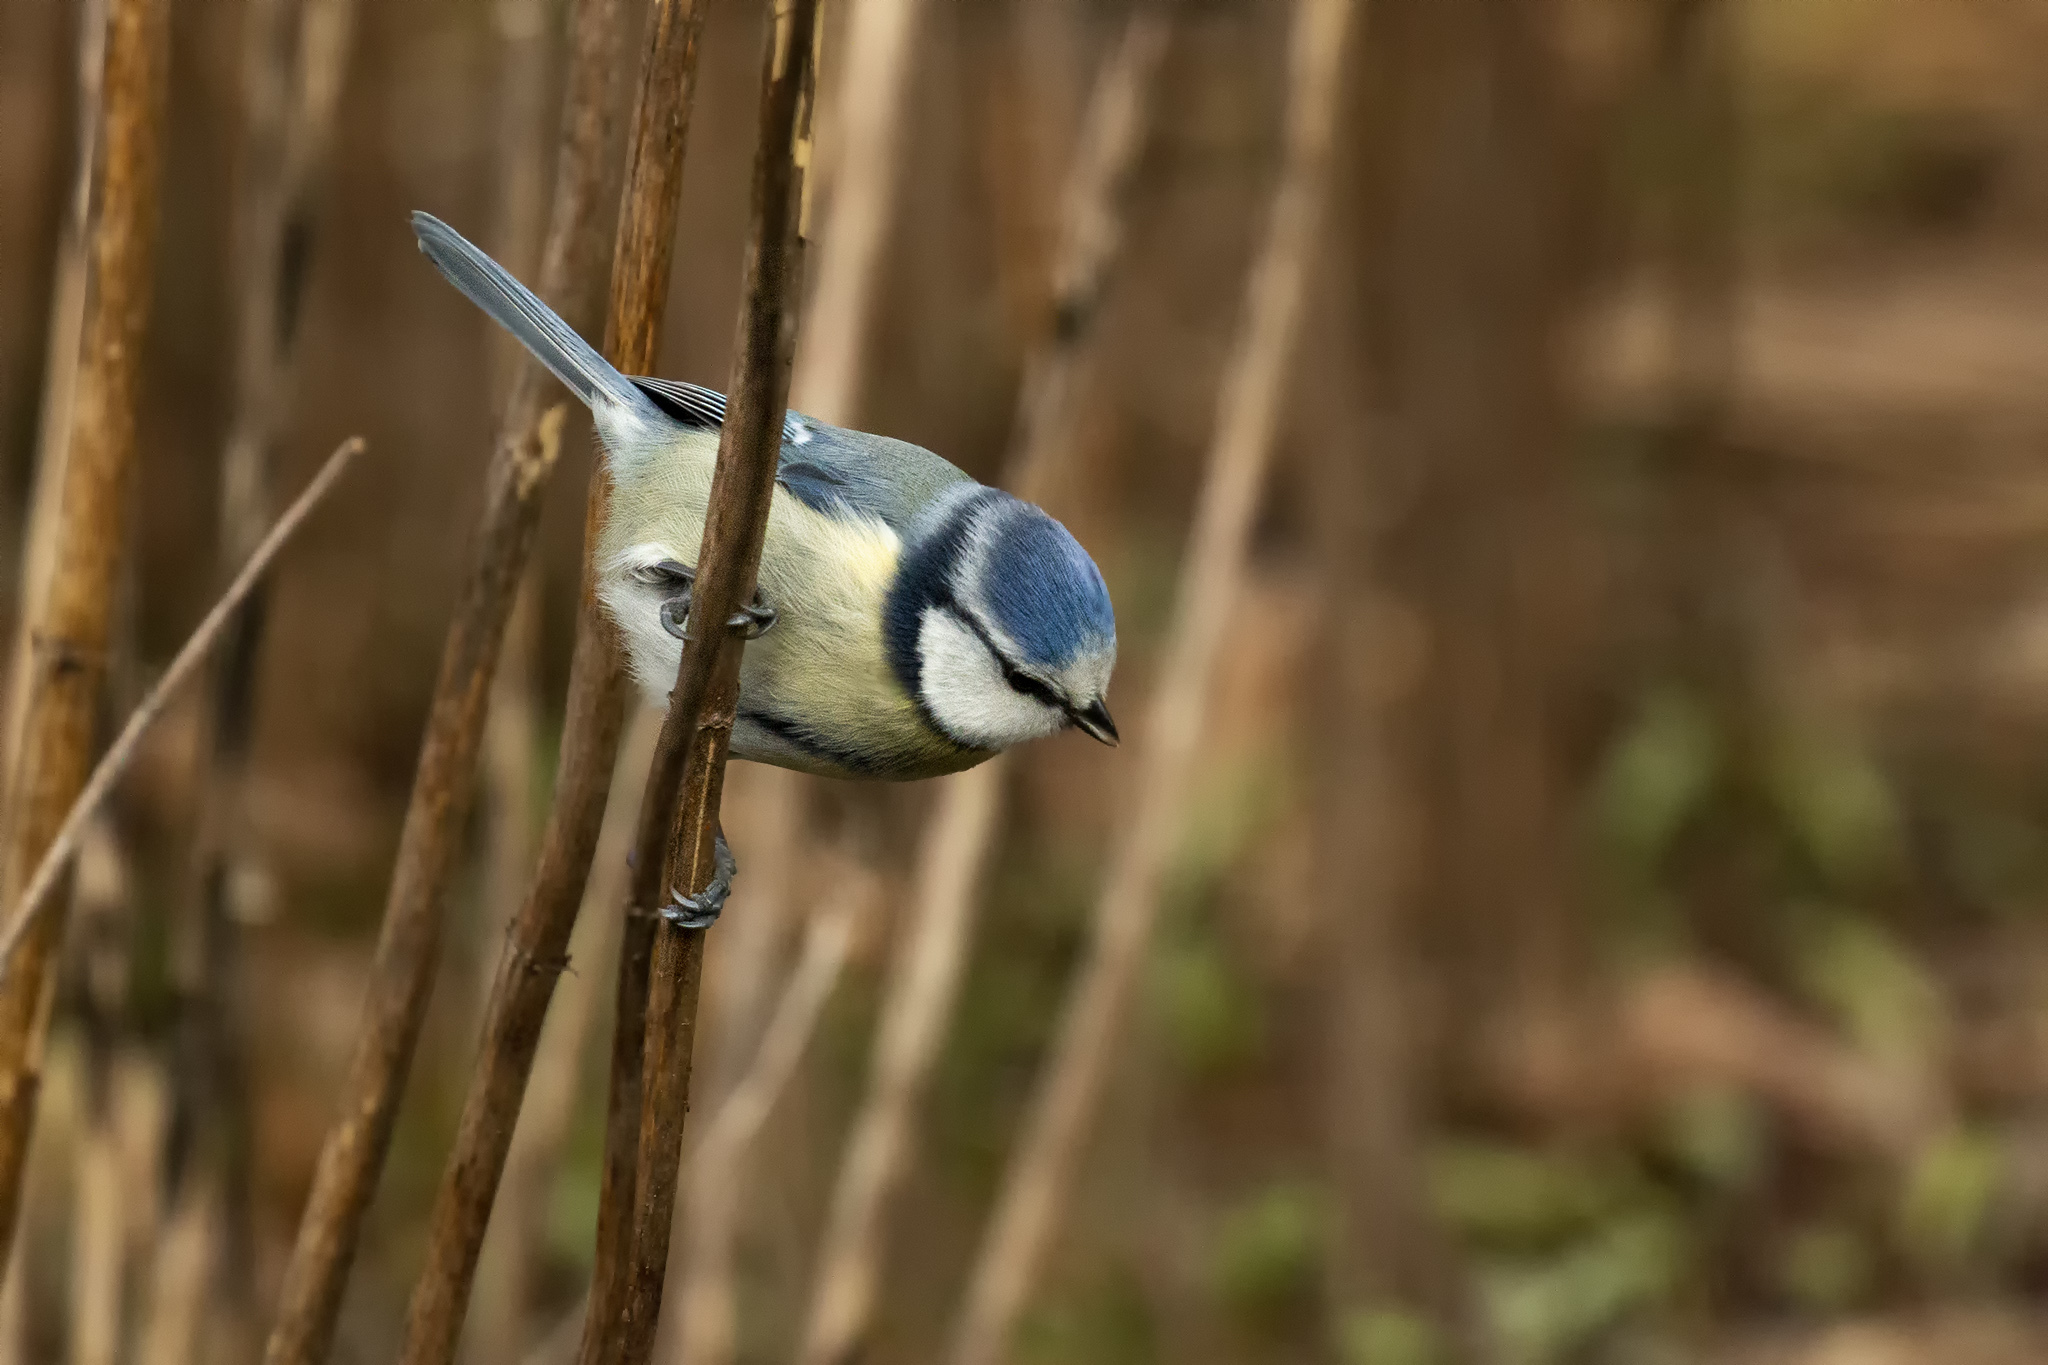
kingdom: Animalia
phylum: Chordata
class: Aves
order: Passeriformes
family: Paridae
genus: Cyanistes
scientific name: Cyanistes caeruleus
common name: Eurasian blue tit
